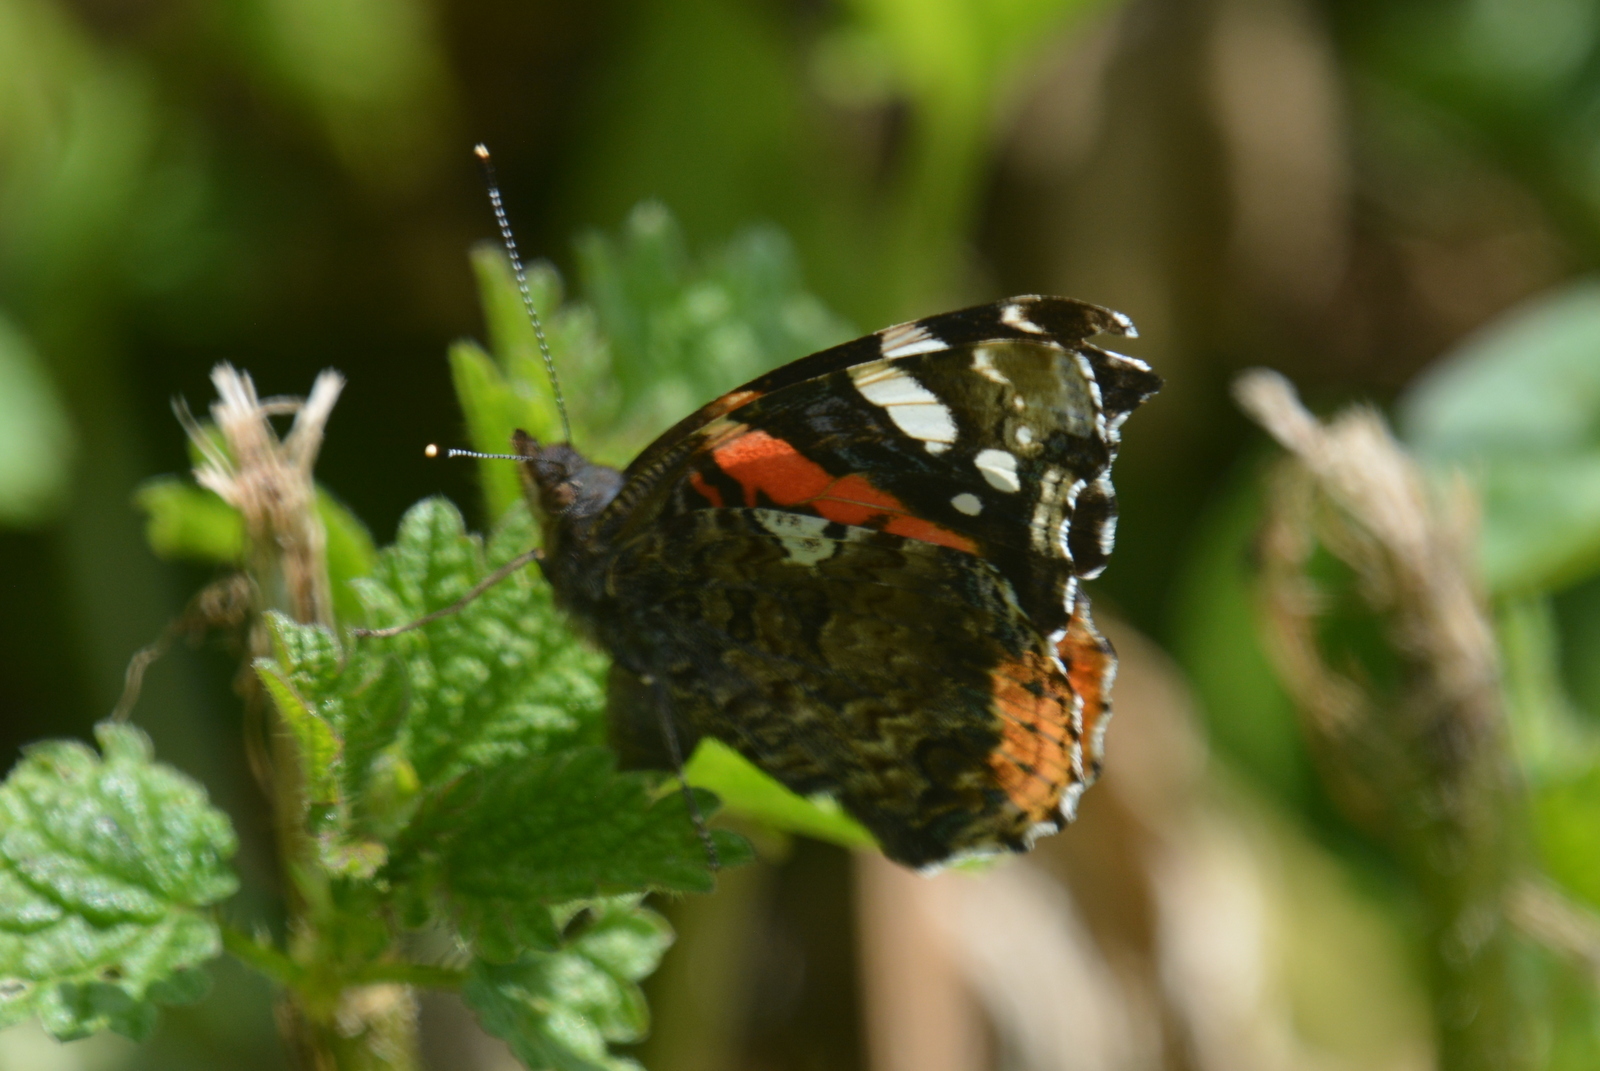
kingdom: Animalia
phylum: Arthropoda
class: Insecta
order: Lepidoptera
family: Nymphalidae
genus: Vanessa
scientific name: Vanessa atalanta
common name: Red admiral
